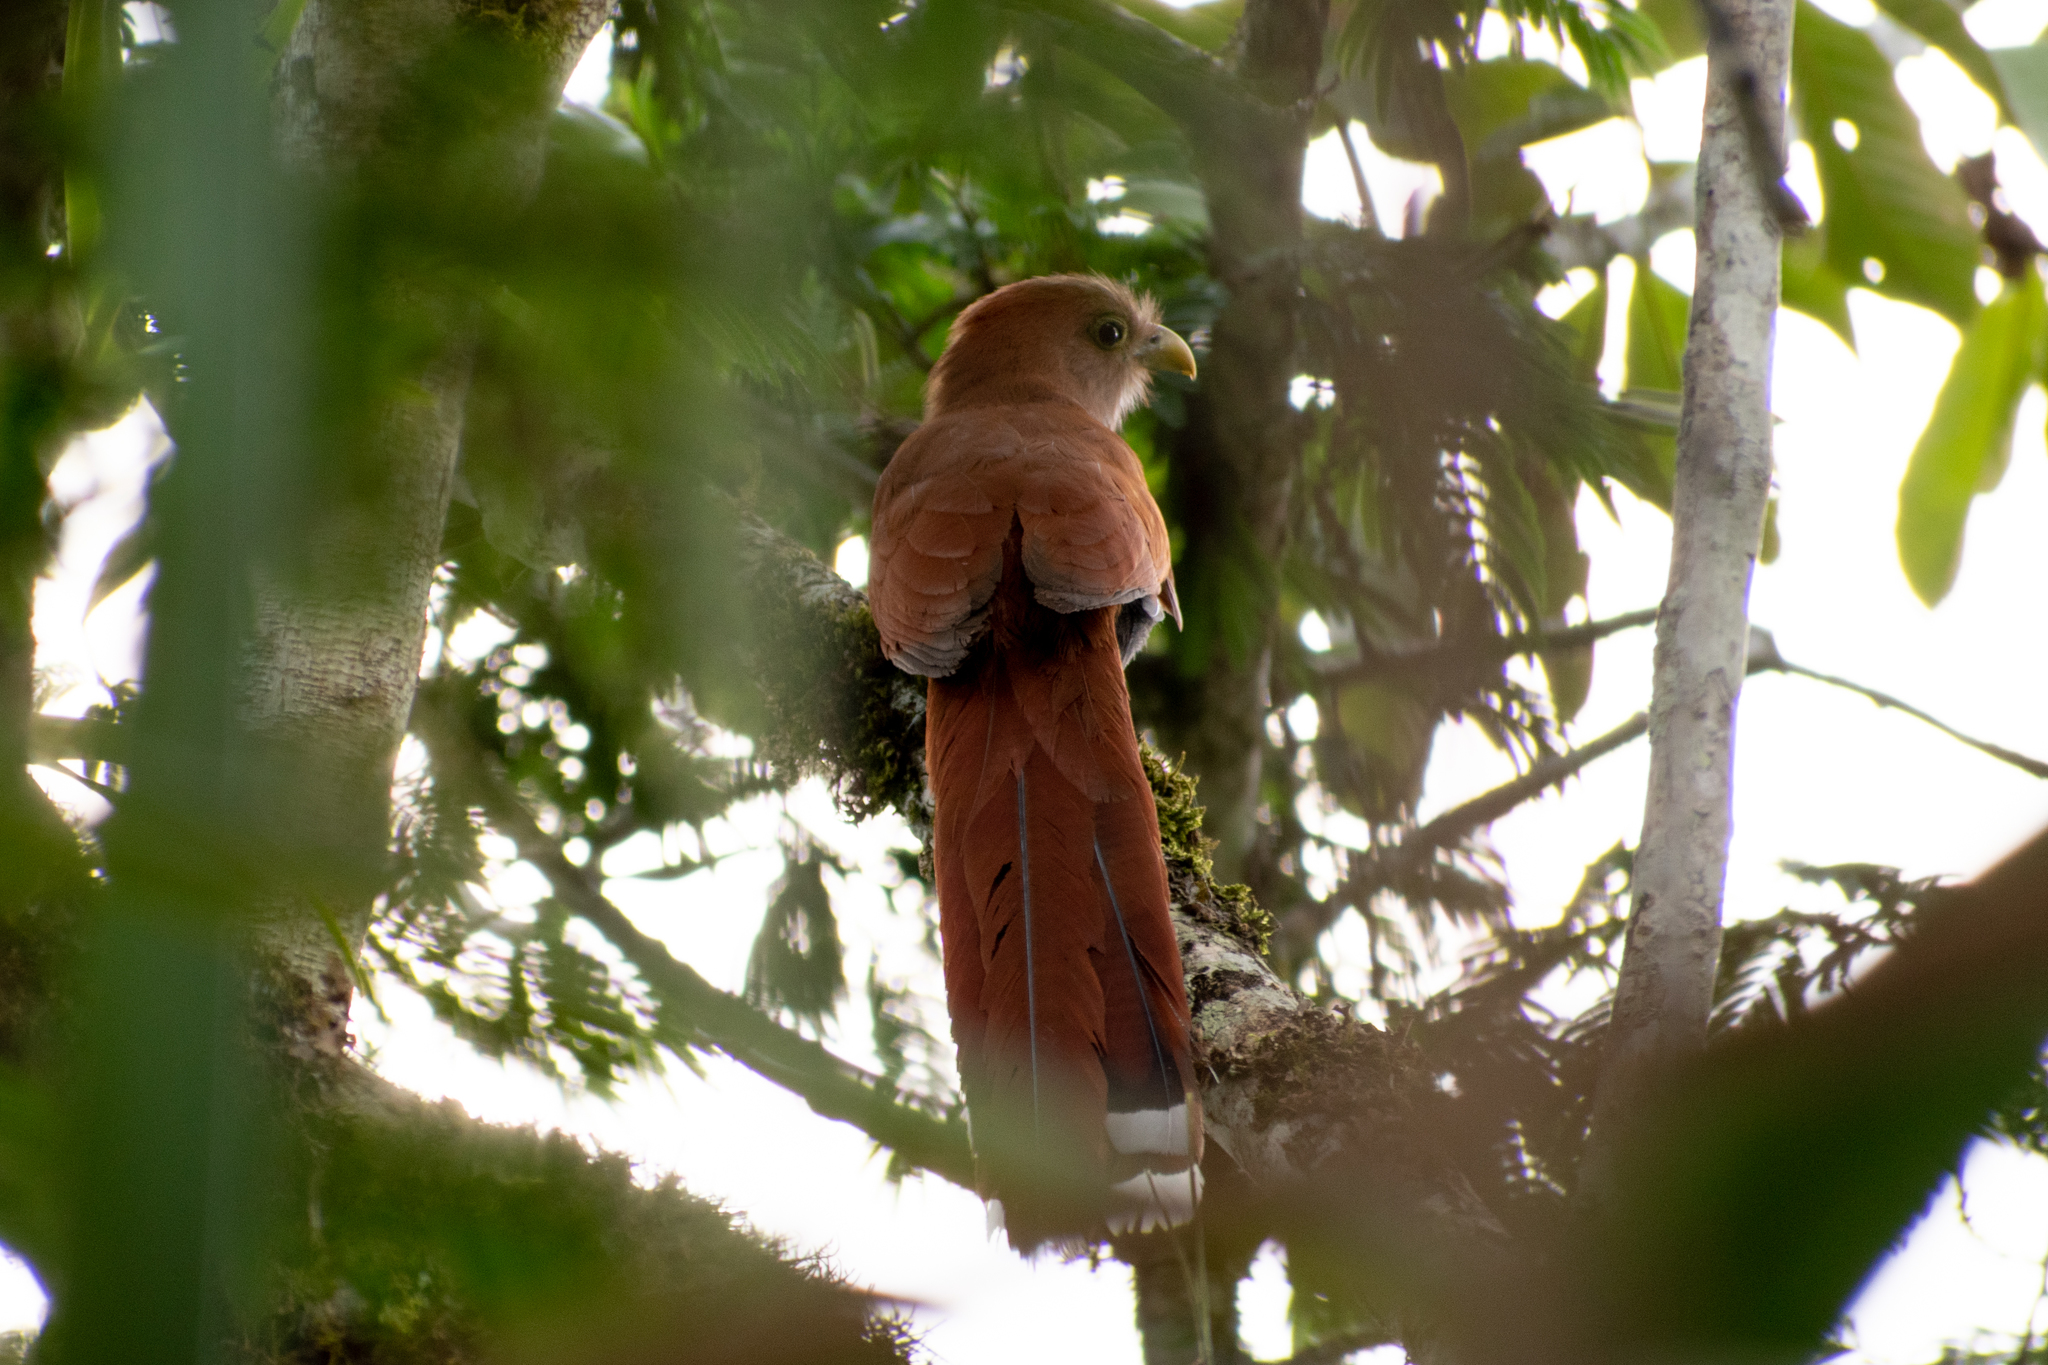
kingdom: Animalia
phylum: Chordata
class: Aves
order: Cuculiformes
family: Cuculidae
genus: Piaya
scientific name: Piaya cayana
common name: Squirrel cuckoo
